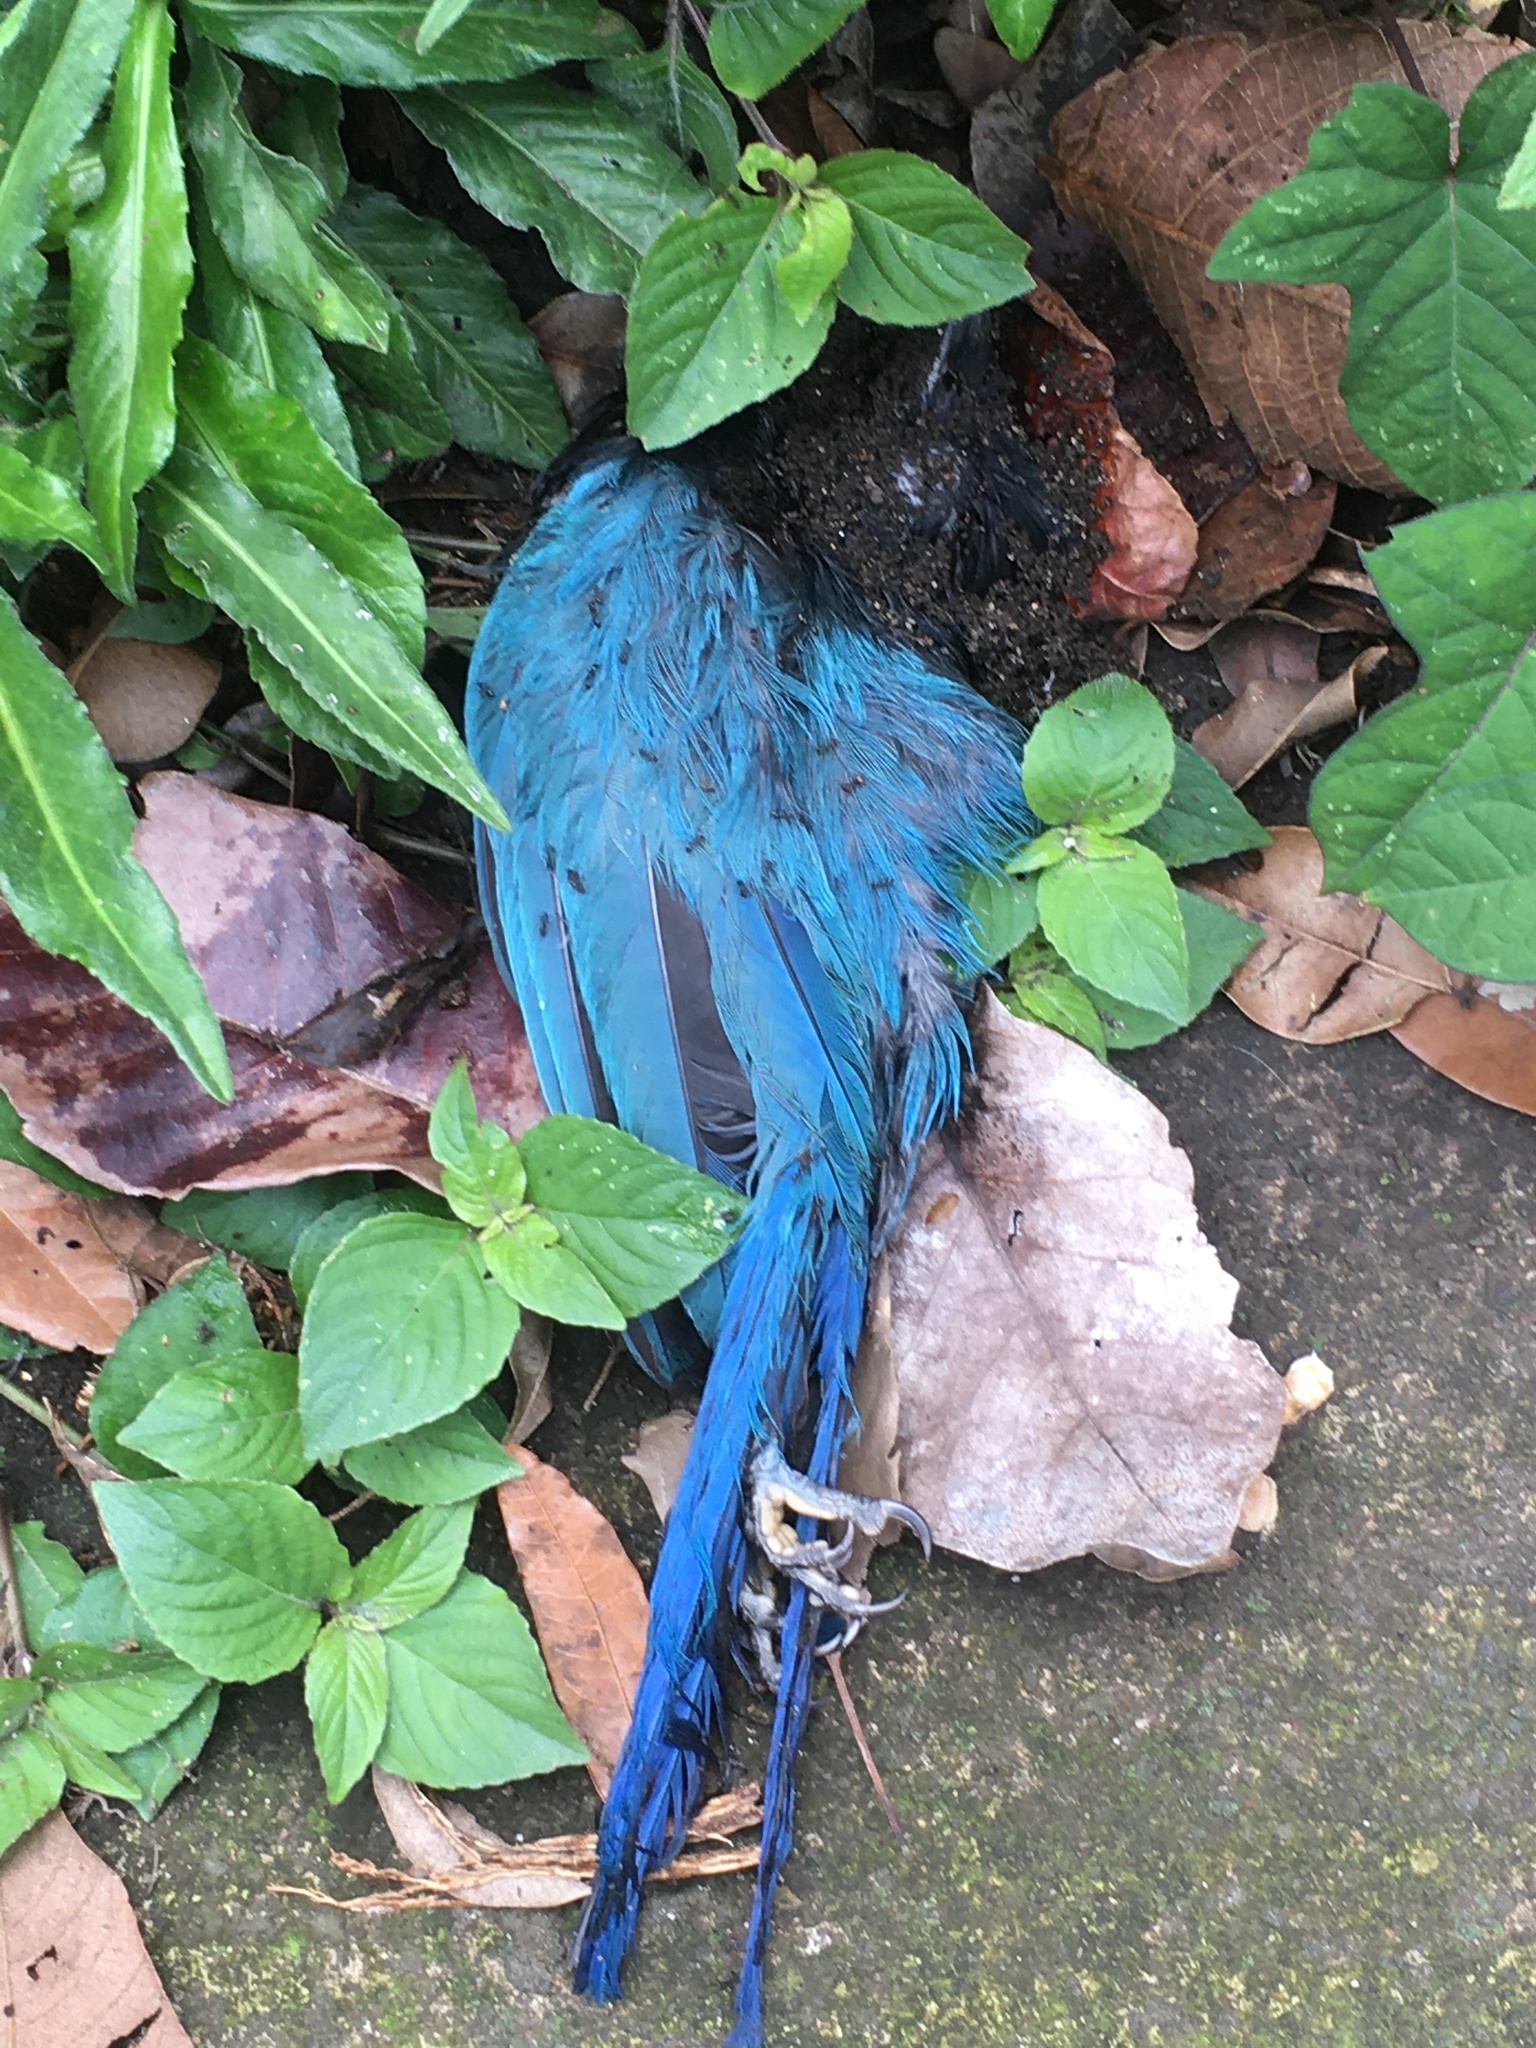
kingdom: Animalia
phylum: Chordata
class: Aves
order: Passeriformes
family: Corvidae
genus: Cyanocorax
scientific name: Cyanocorax melanocyaneus
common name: Bushy-crested jay
